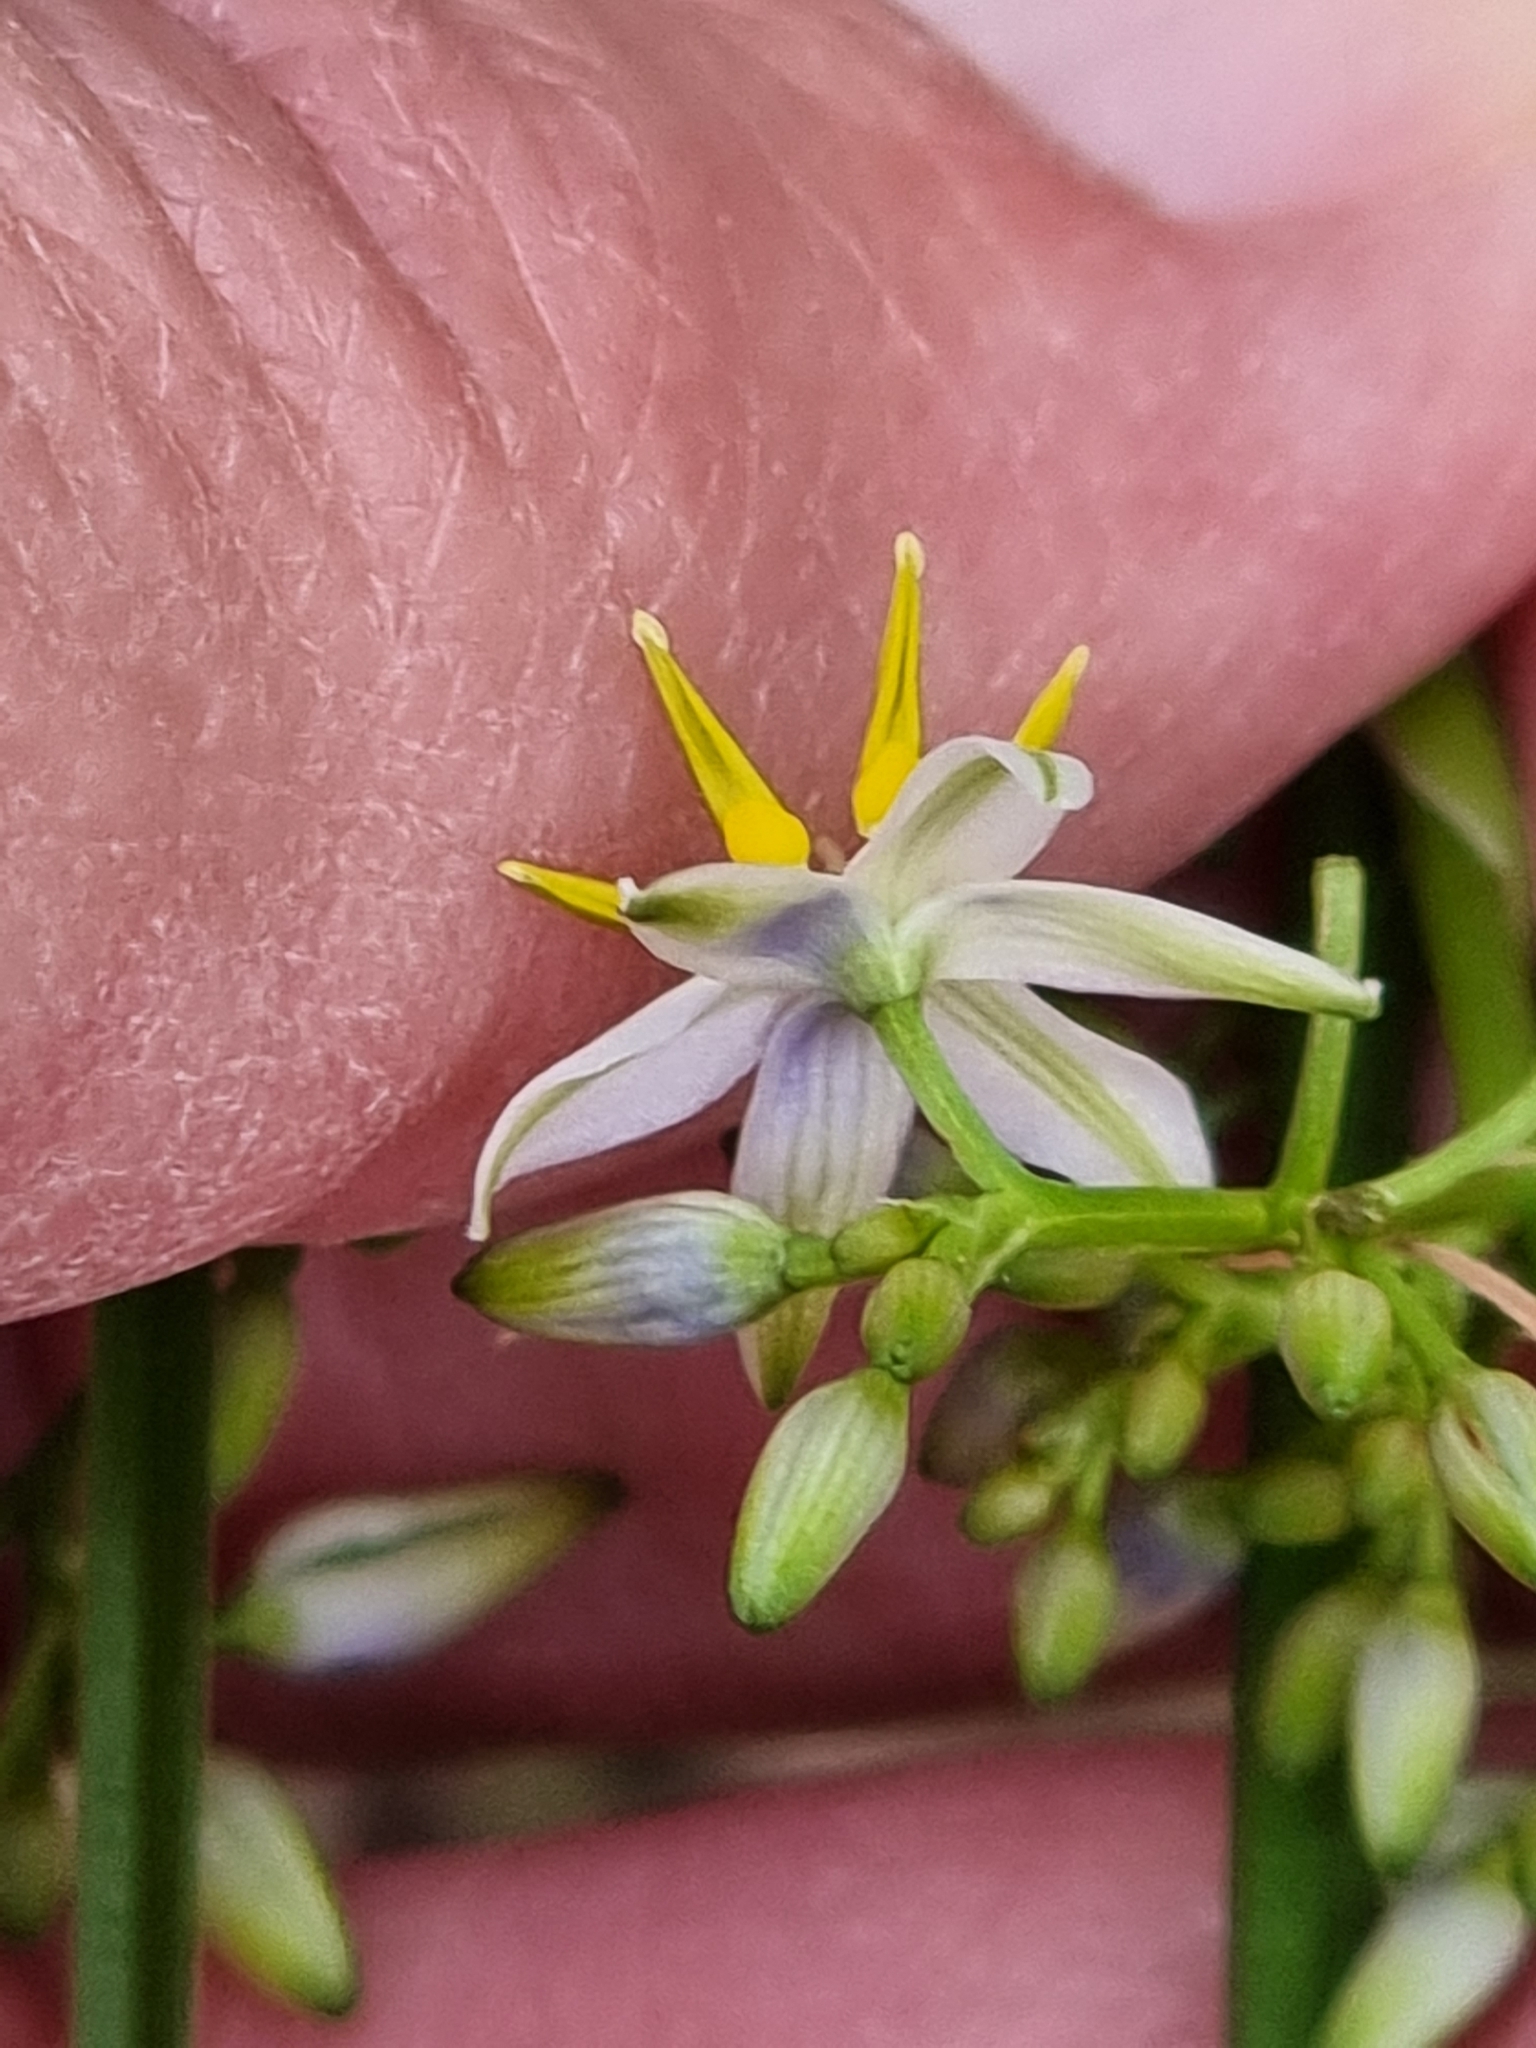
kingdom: Plantae
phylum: Tracheophyta
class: Liliopsida
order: Asparagales
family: Asphodelaceae
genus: Dianella
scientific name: Dianella revoluta
